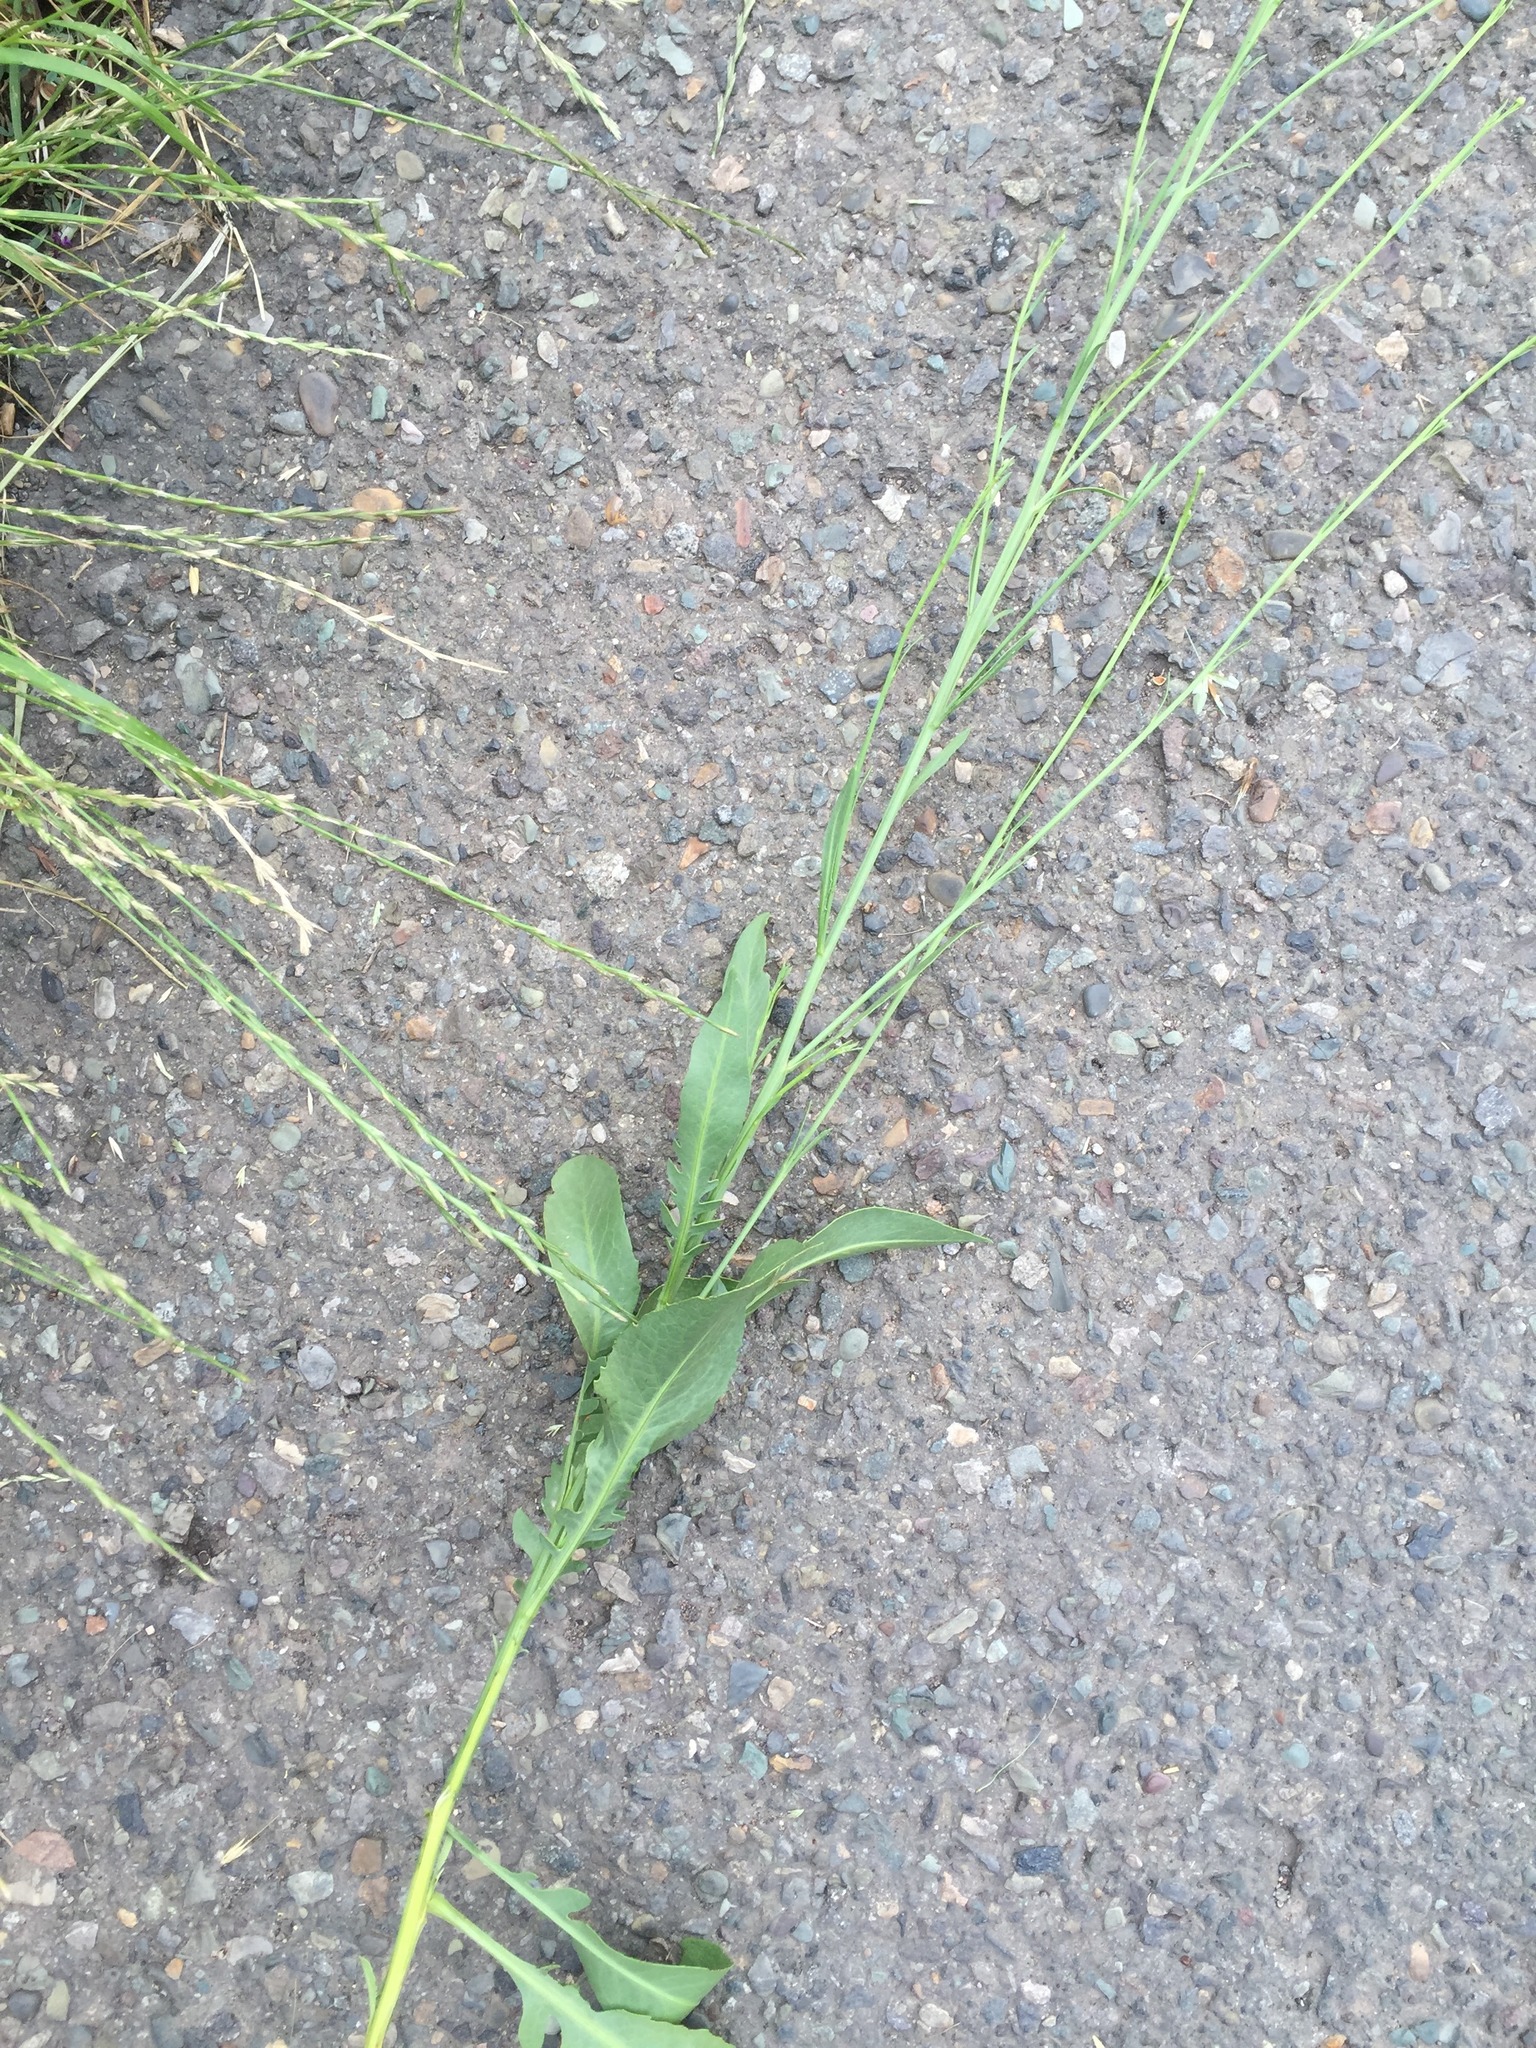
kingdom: Plantae
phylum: Tracheophyta
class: Magnoliopsida
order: Asterales
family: Asteraceae
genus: Centaurea
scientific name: Centaurea behen
